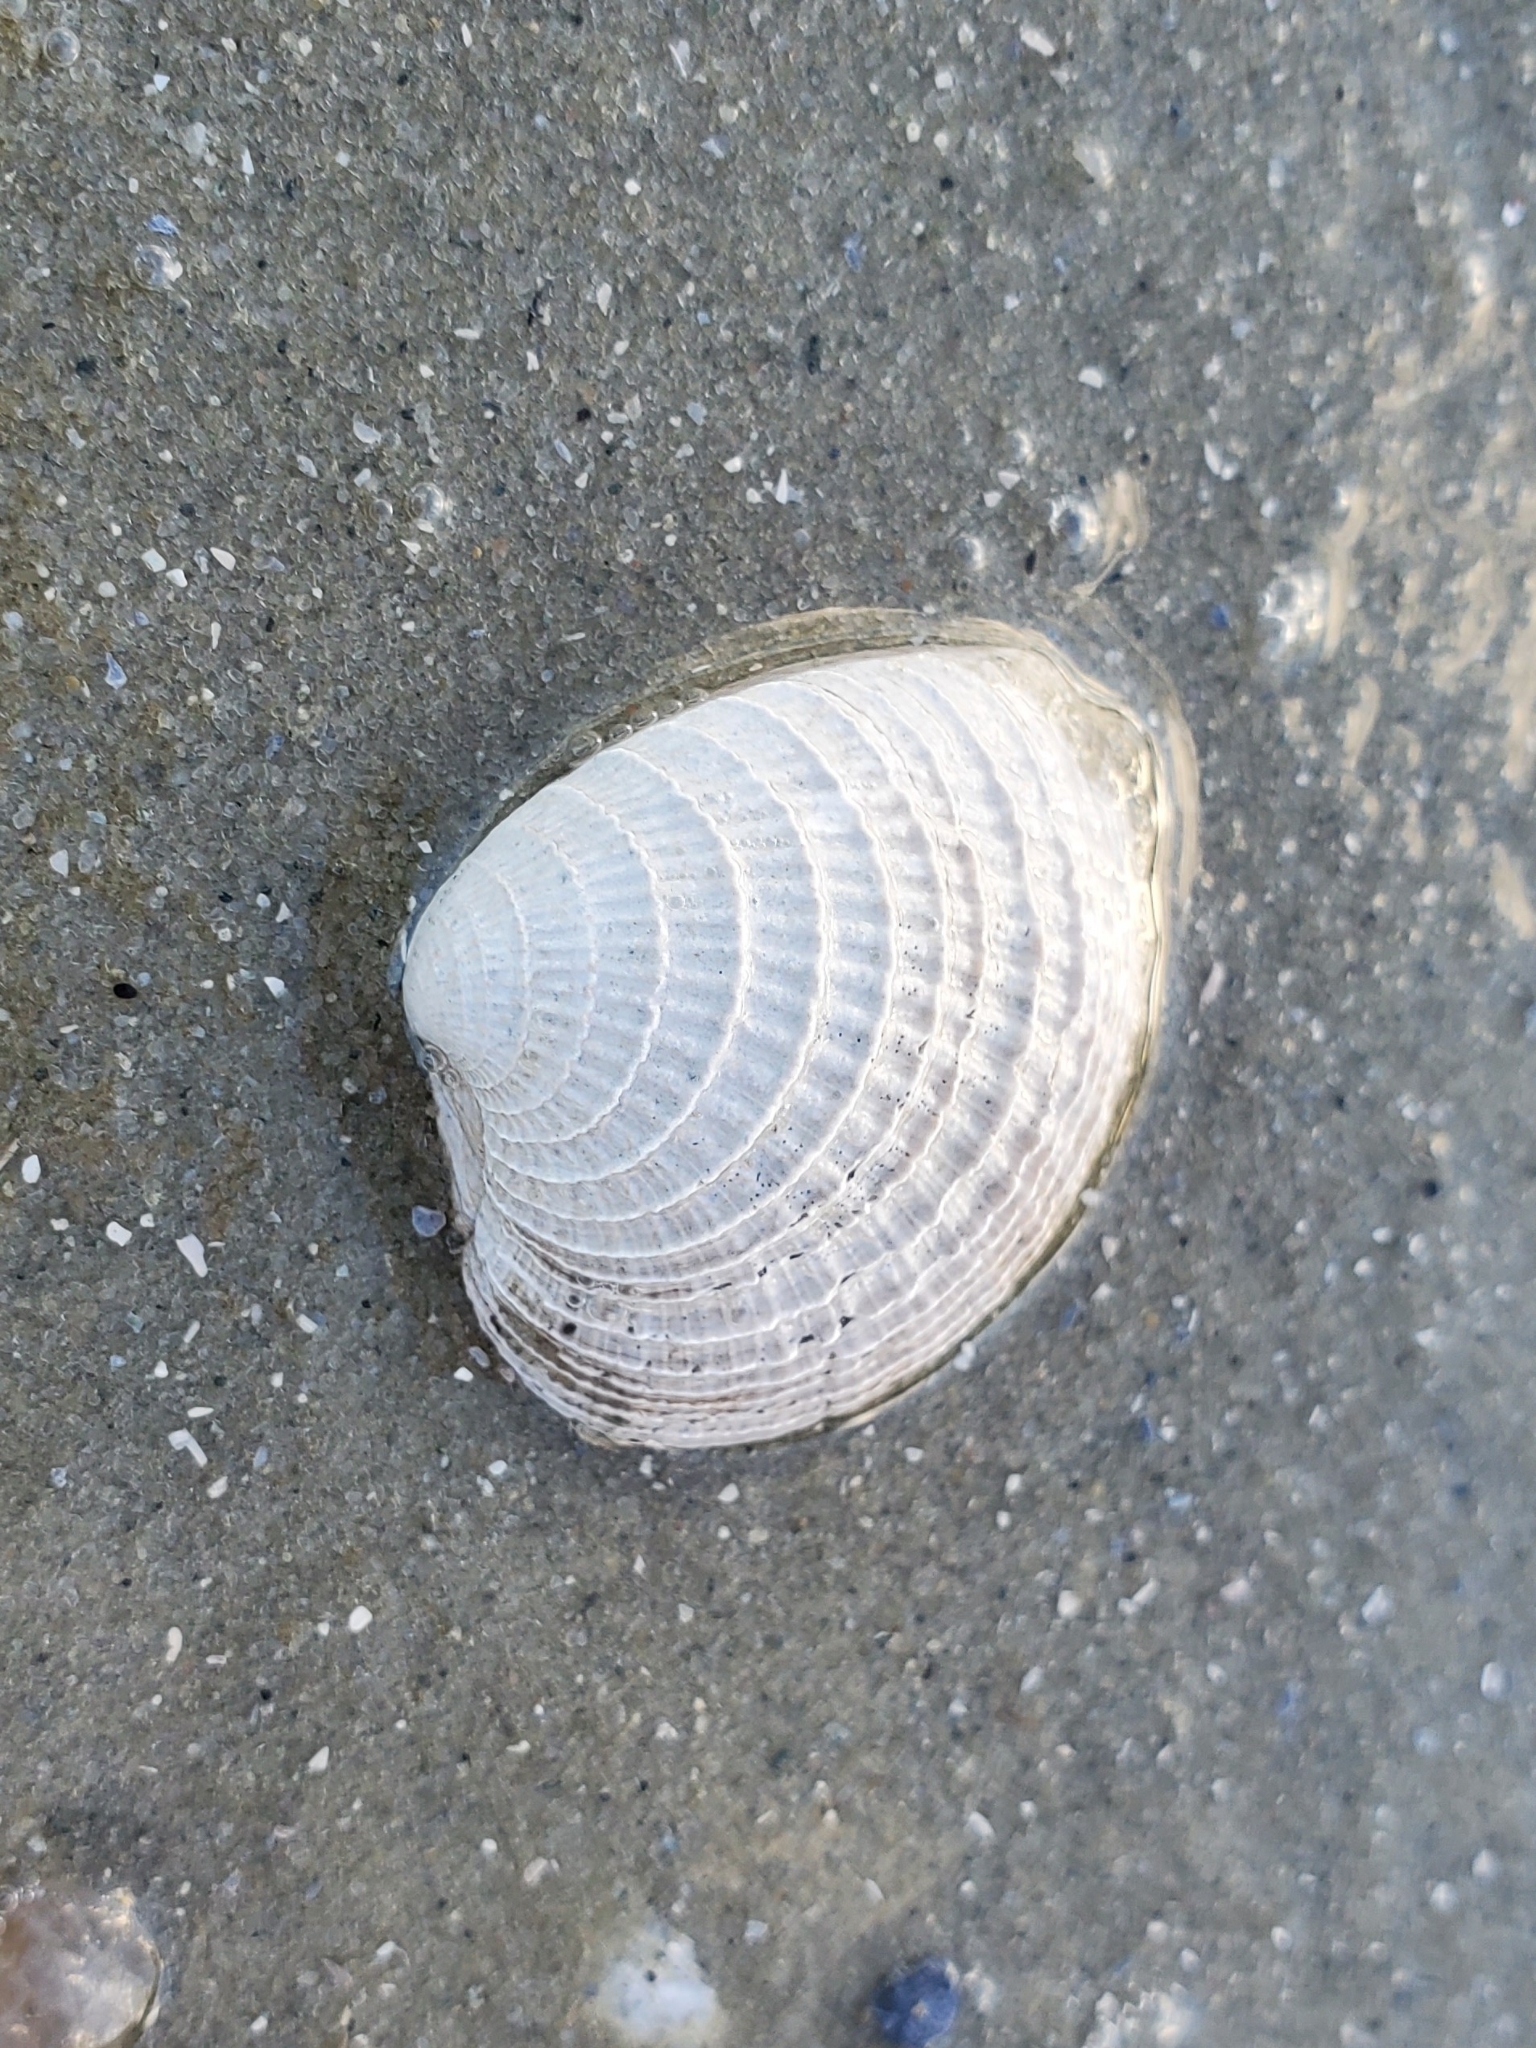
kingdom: Animalia
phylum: Mollusca
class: Bivalvia
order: Venerida
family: Veneridae
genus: Chione
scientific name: Chione elevata
